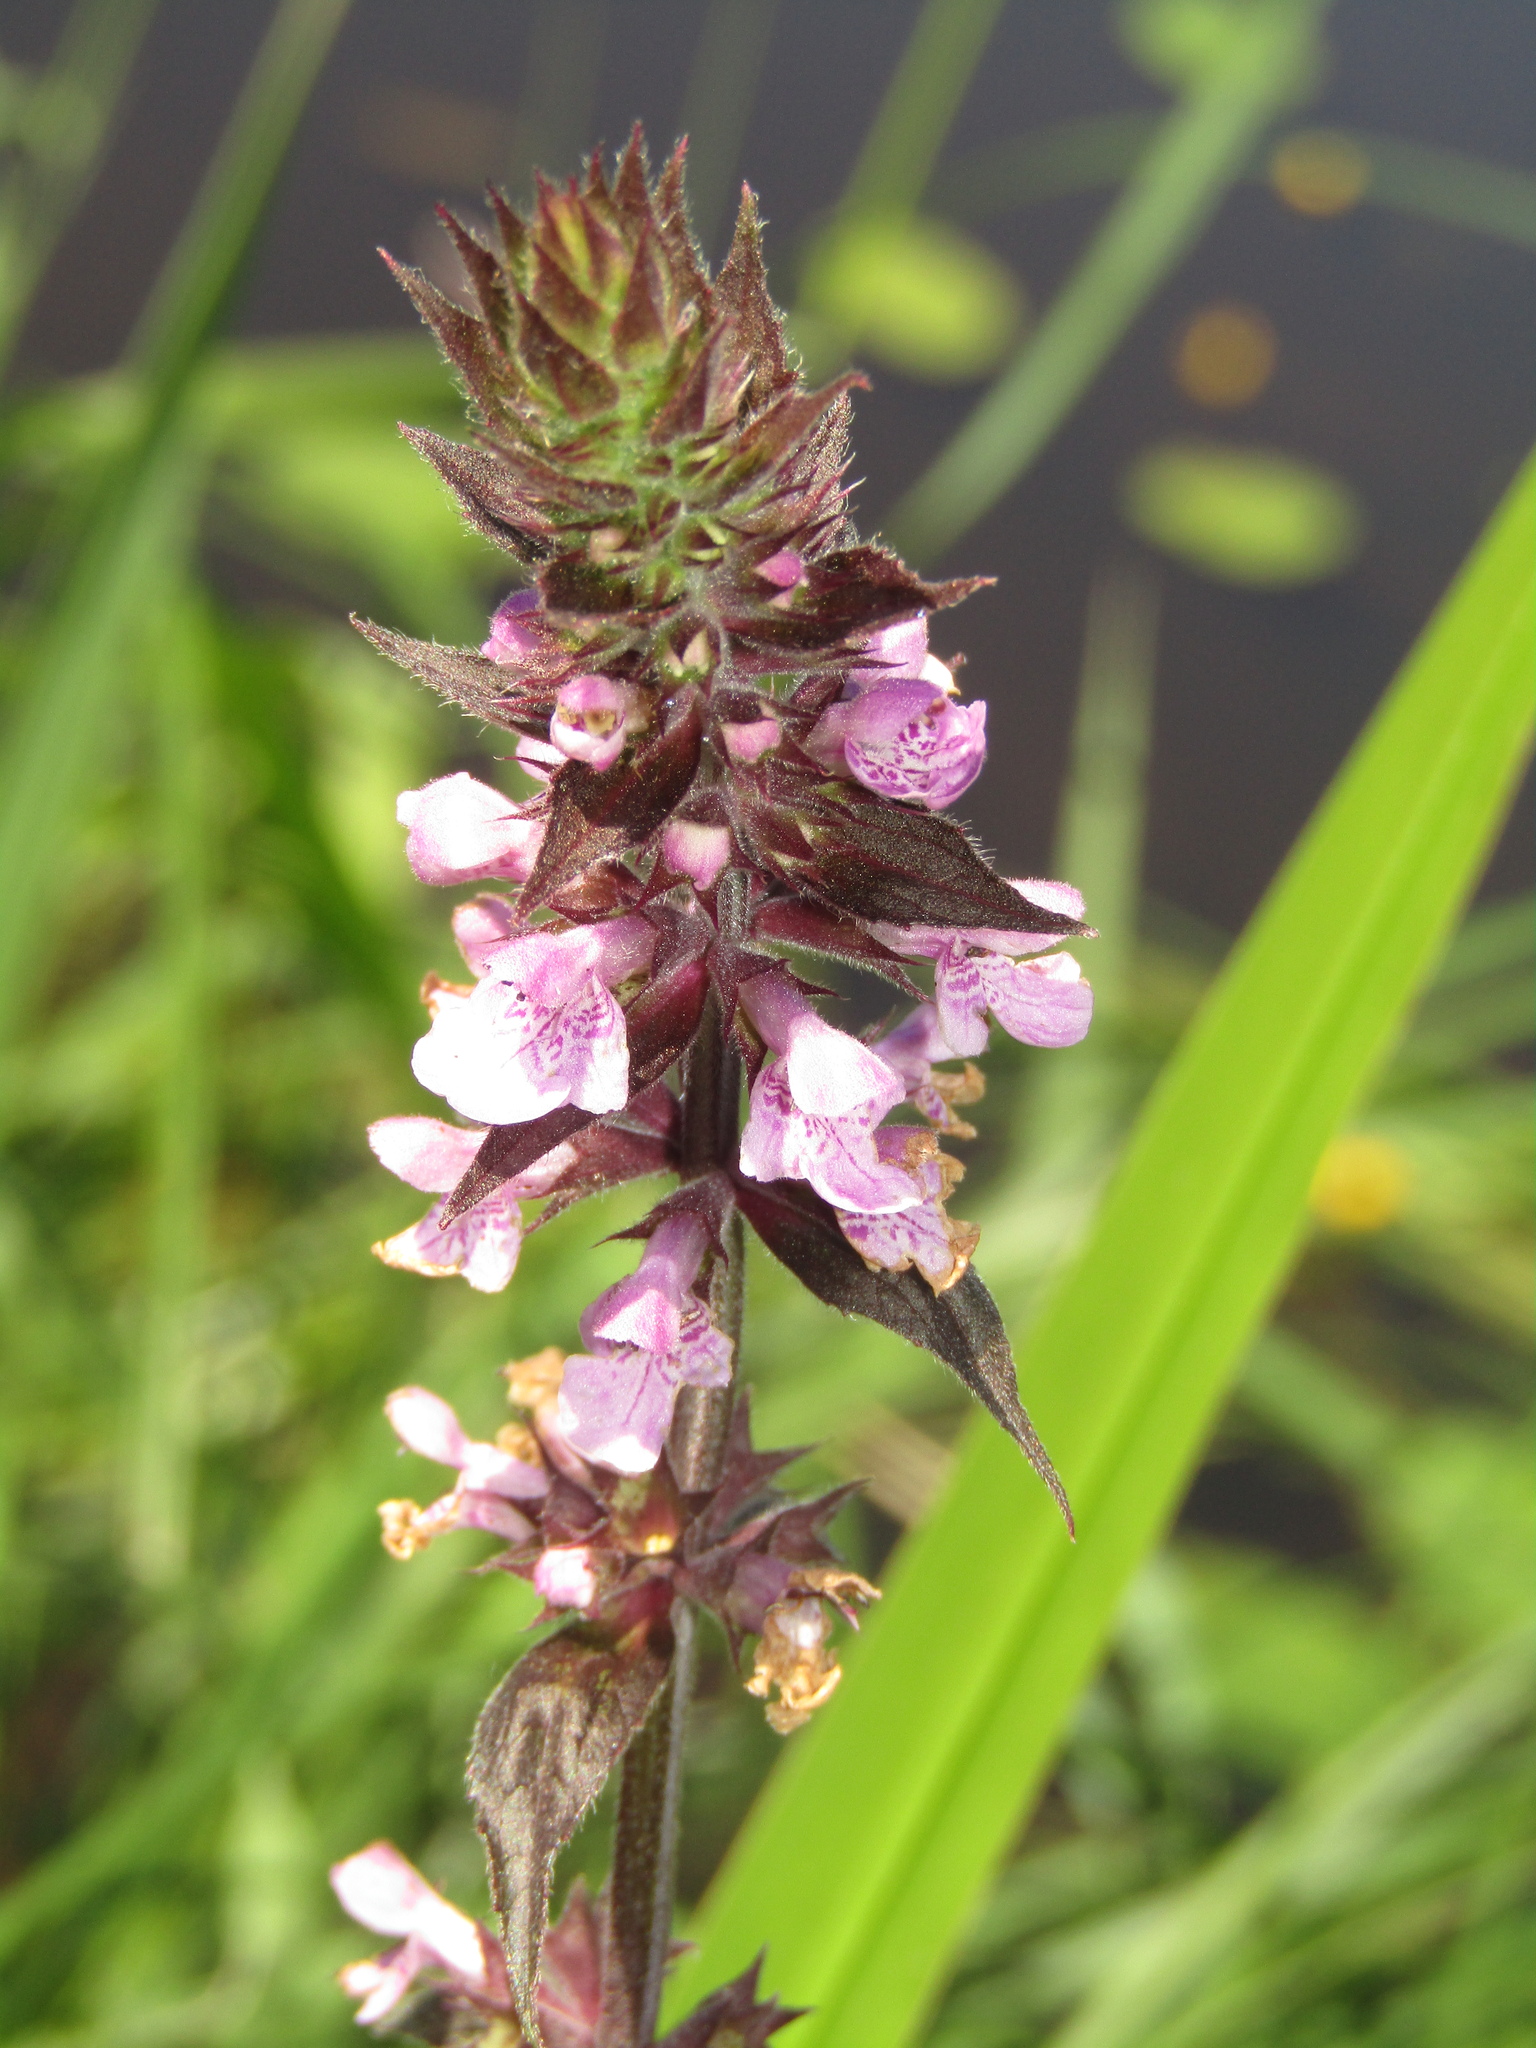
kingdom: Plantae
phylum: Tracheophyta
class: Magnoliopsida
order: Lamiales
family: Lamiaceae
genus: Stachys
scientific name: Stachys palustris
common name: Marsh woundwort
